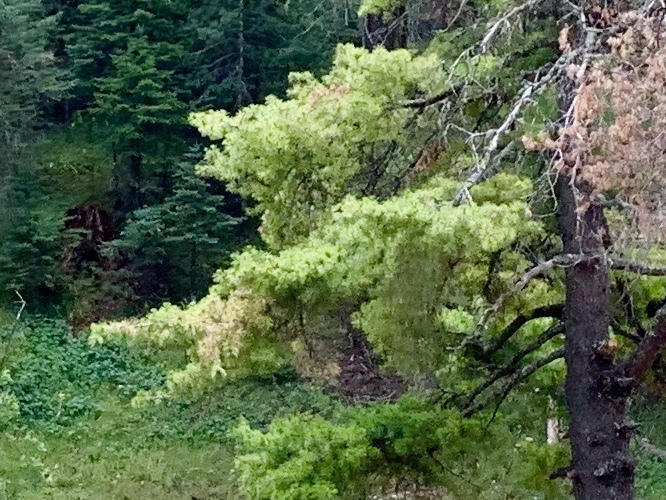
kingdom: Plantae
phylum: Tracheophyta
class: Pinopsida
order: Pinales
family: Pinaceae
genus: Pinus
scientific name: Pinus strobiformis
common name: Southwestern white pine
